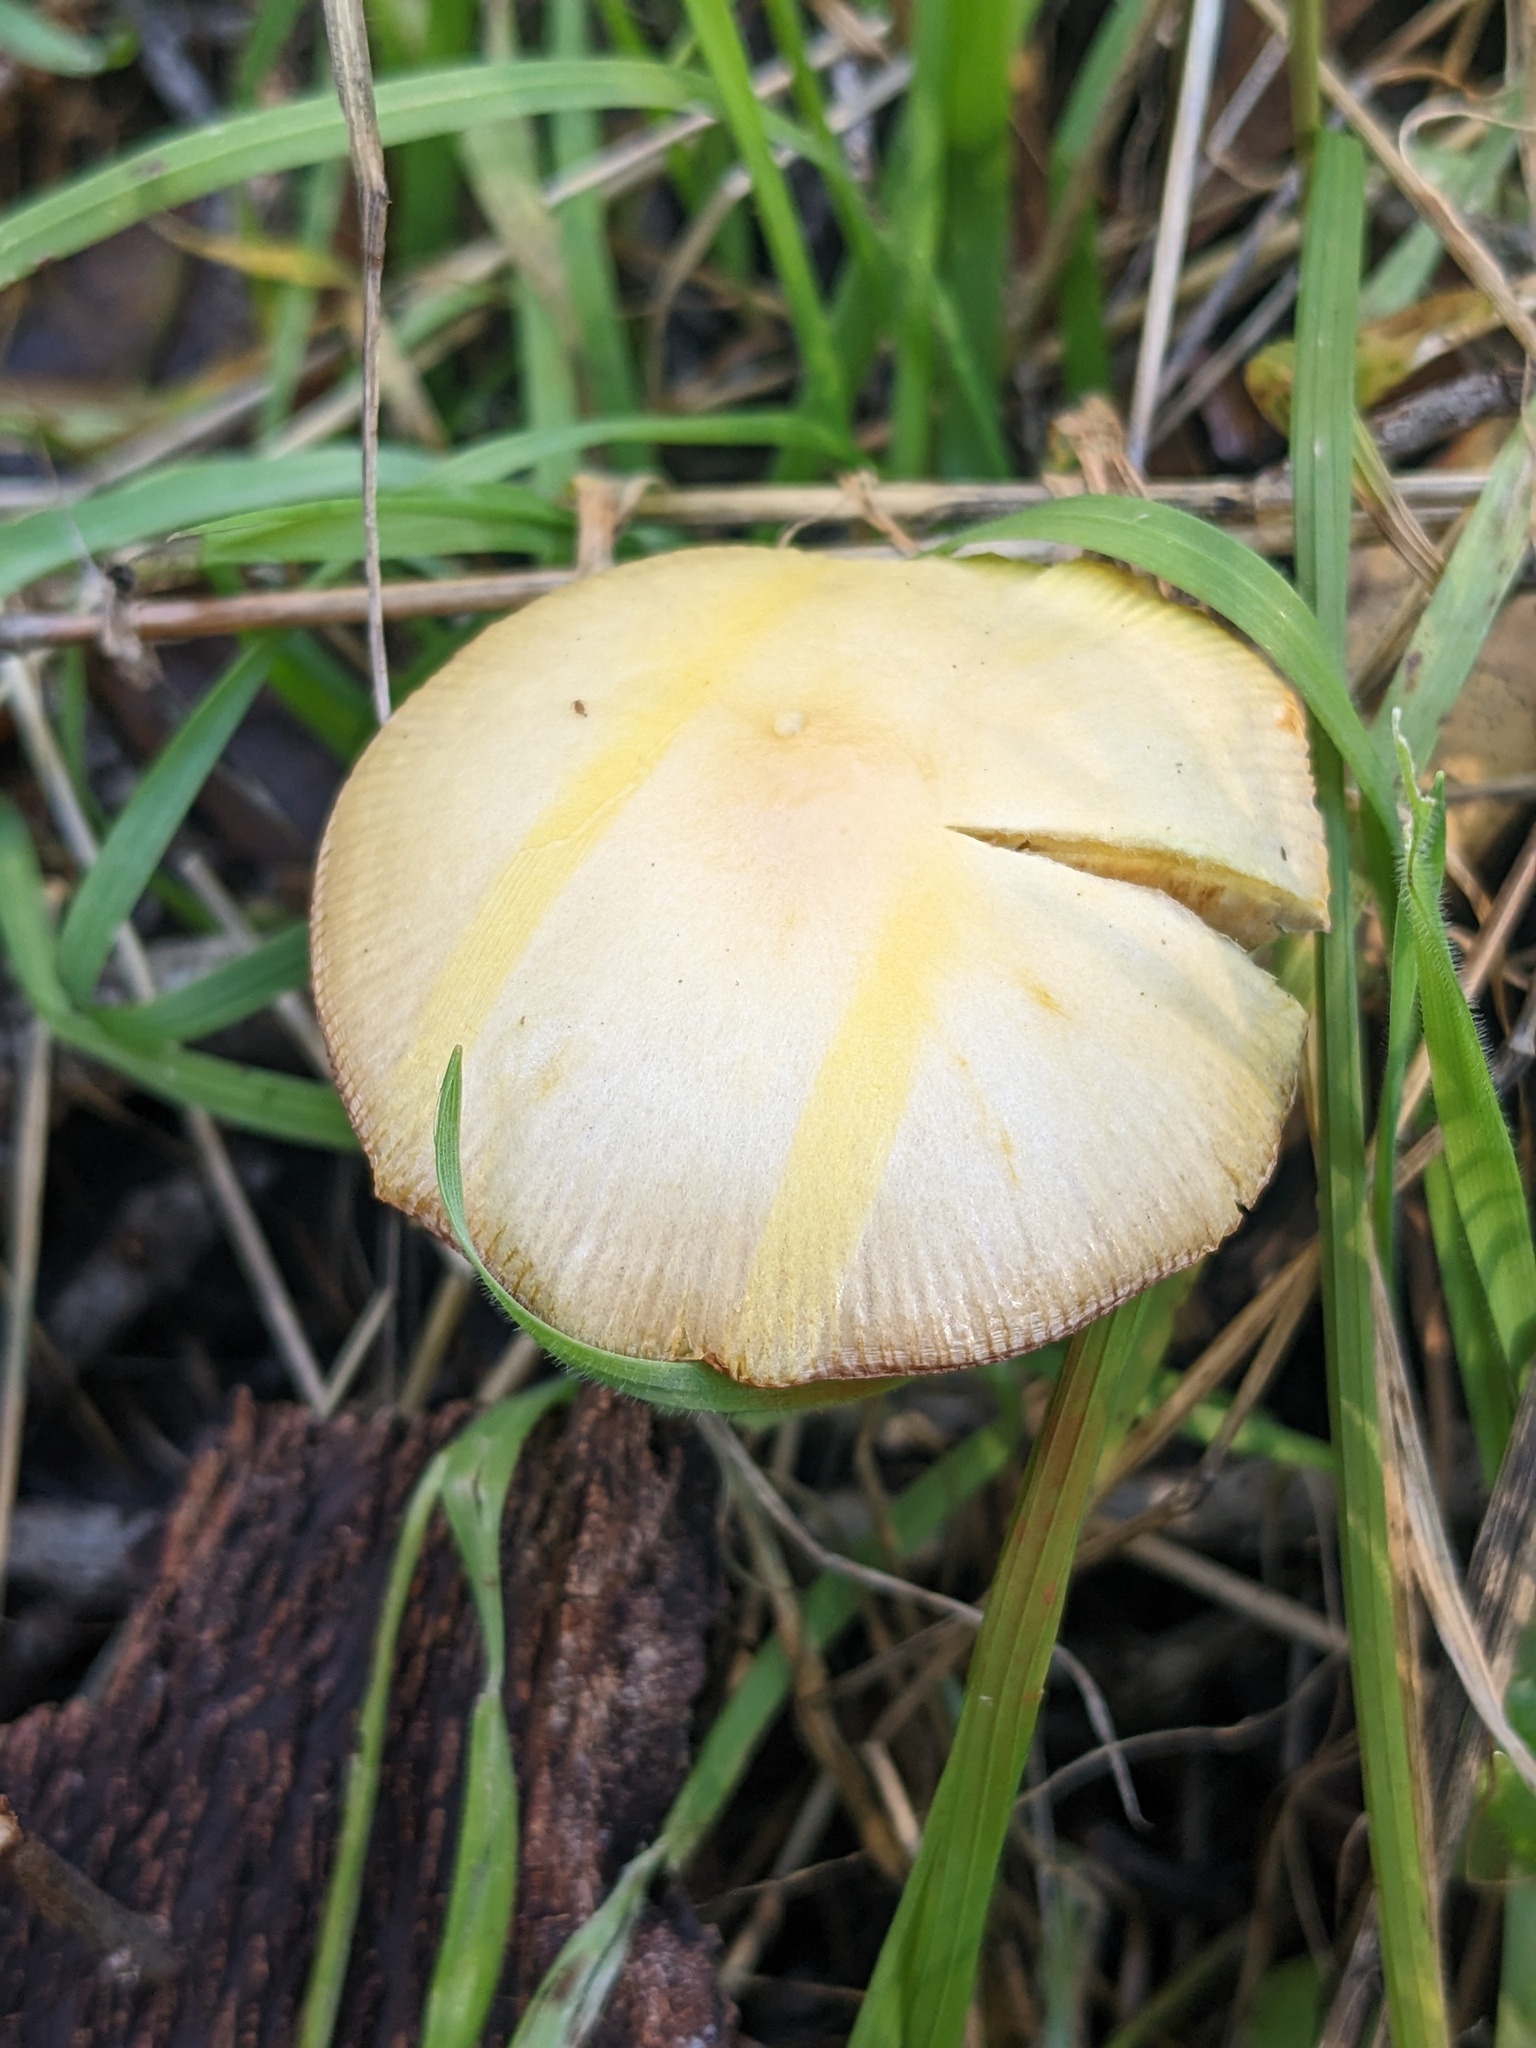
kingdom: Fungi
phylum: Basidiomycota
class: Agaricomycetes
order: Agaricales
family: Bolbitiaceae
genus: Bolbitius
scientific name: Bolbitius titubans
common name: Yellow fieldcap
